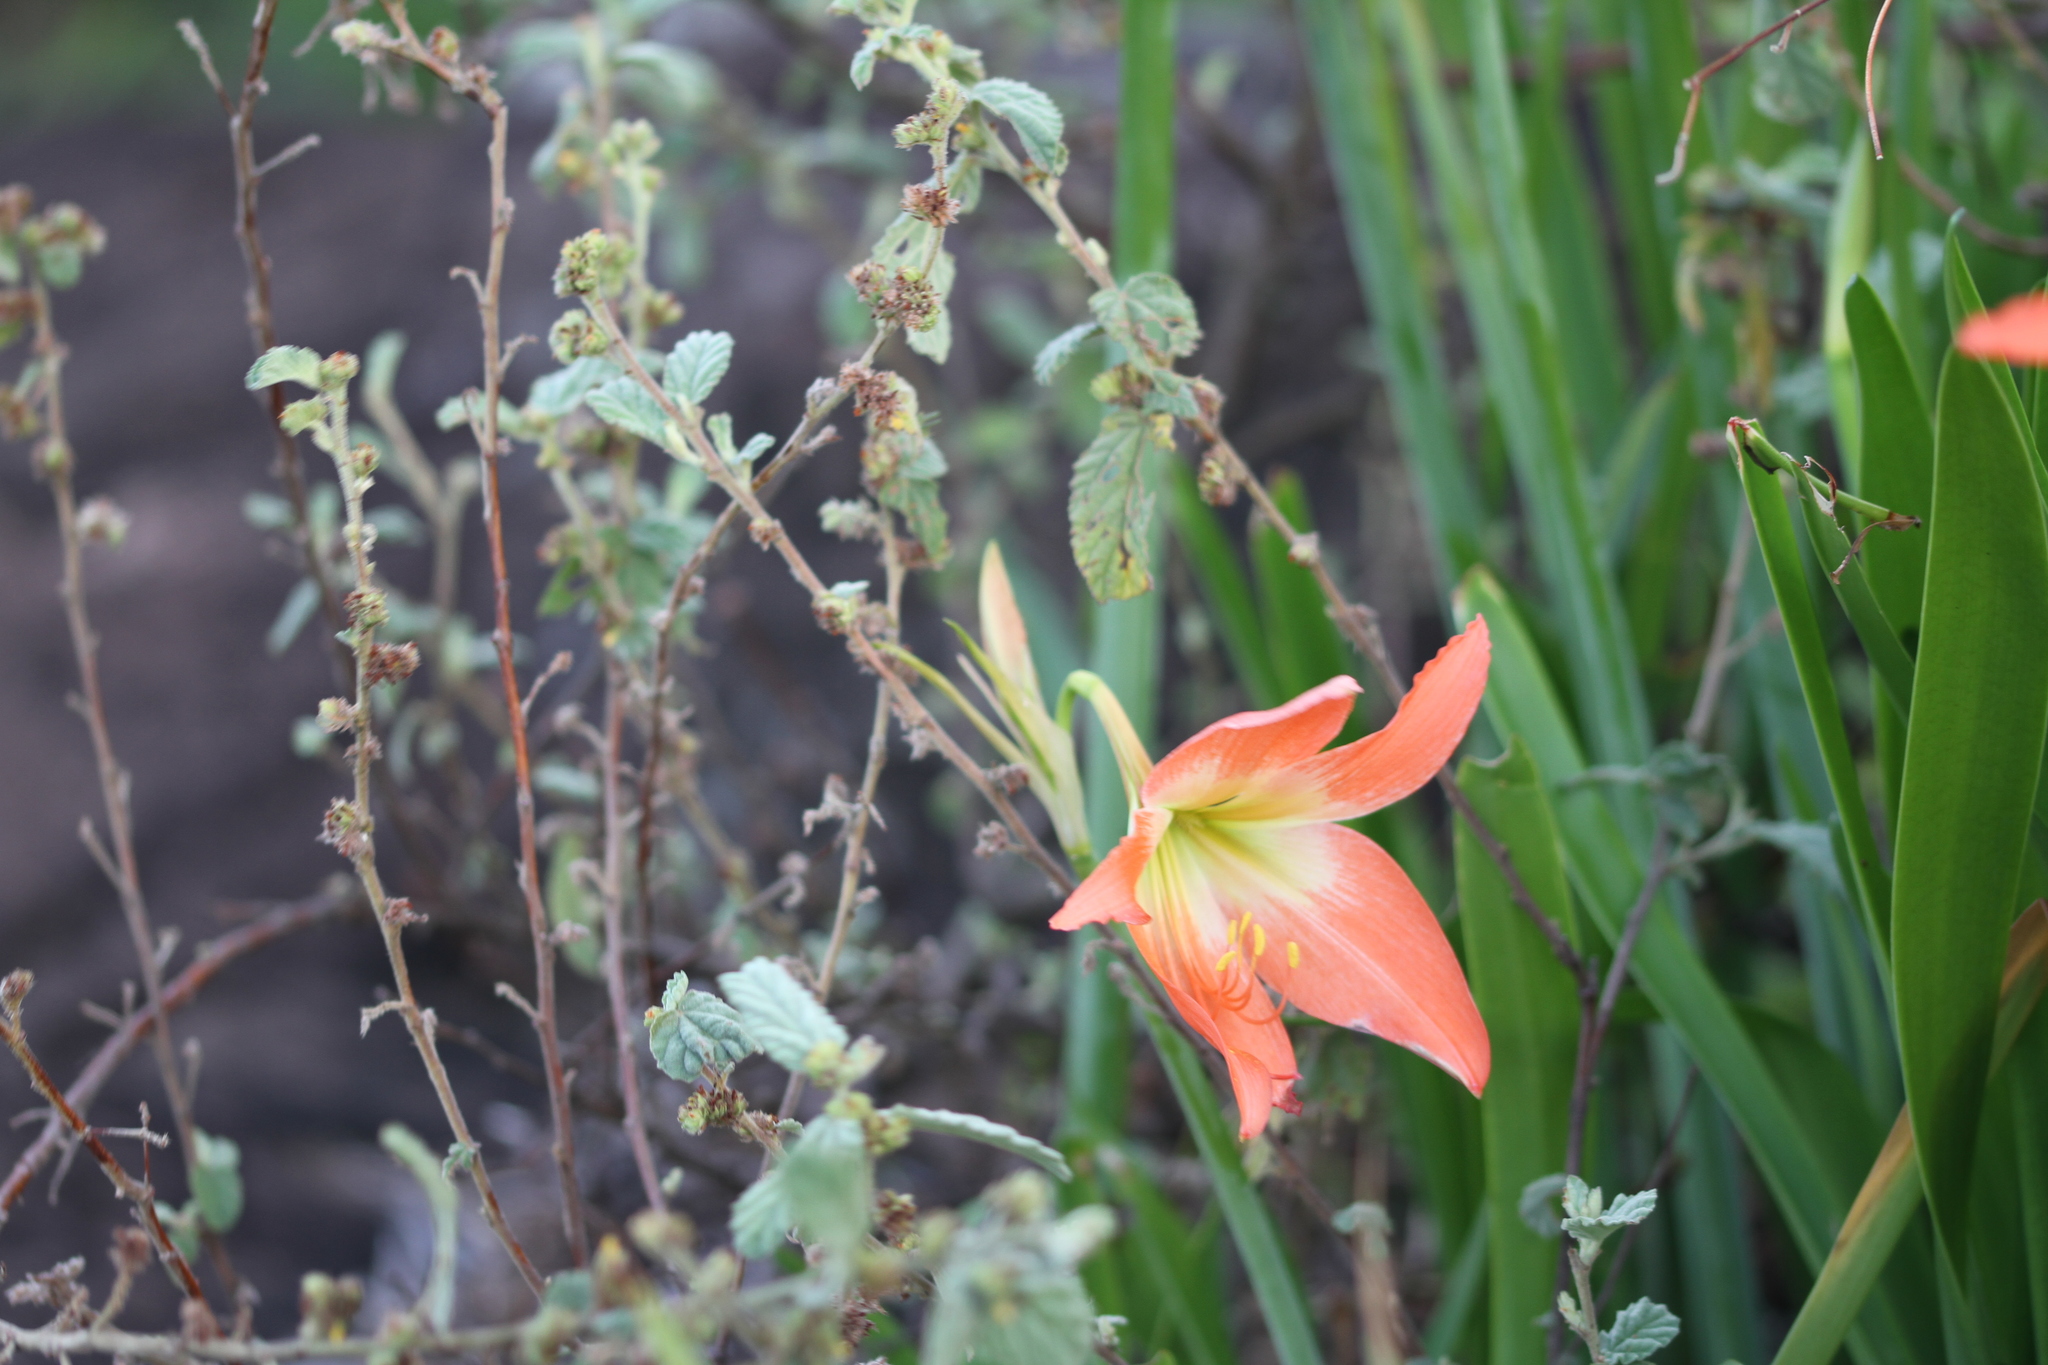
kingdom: Plantae
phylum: Tracheophyta
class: Liliopsida
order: Asparagales
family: Amaryllidaceae
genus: Hippeastrum
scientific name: Hippeastrum puniceum
